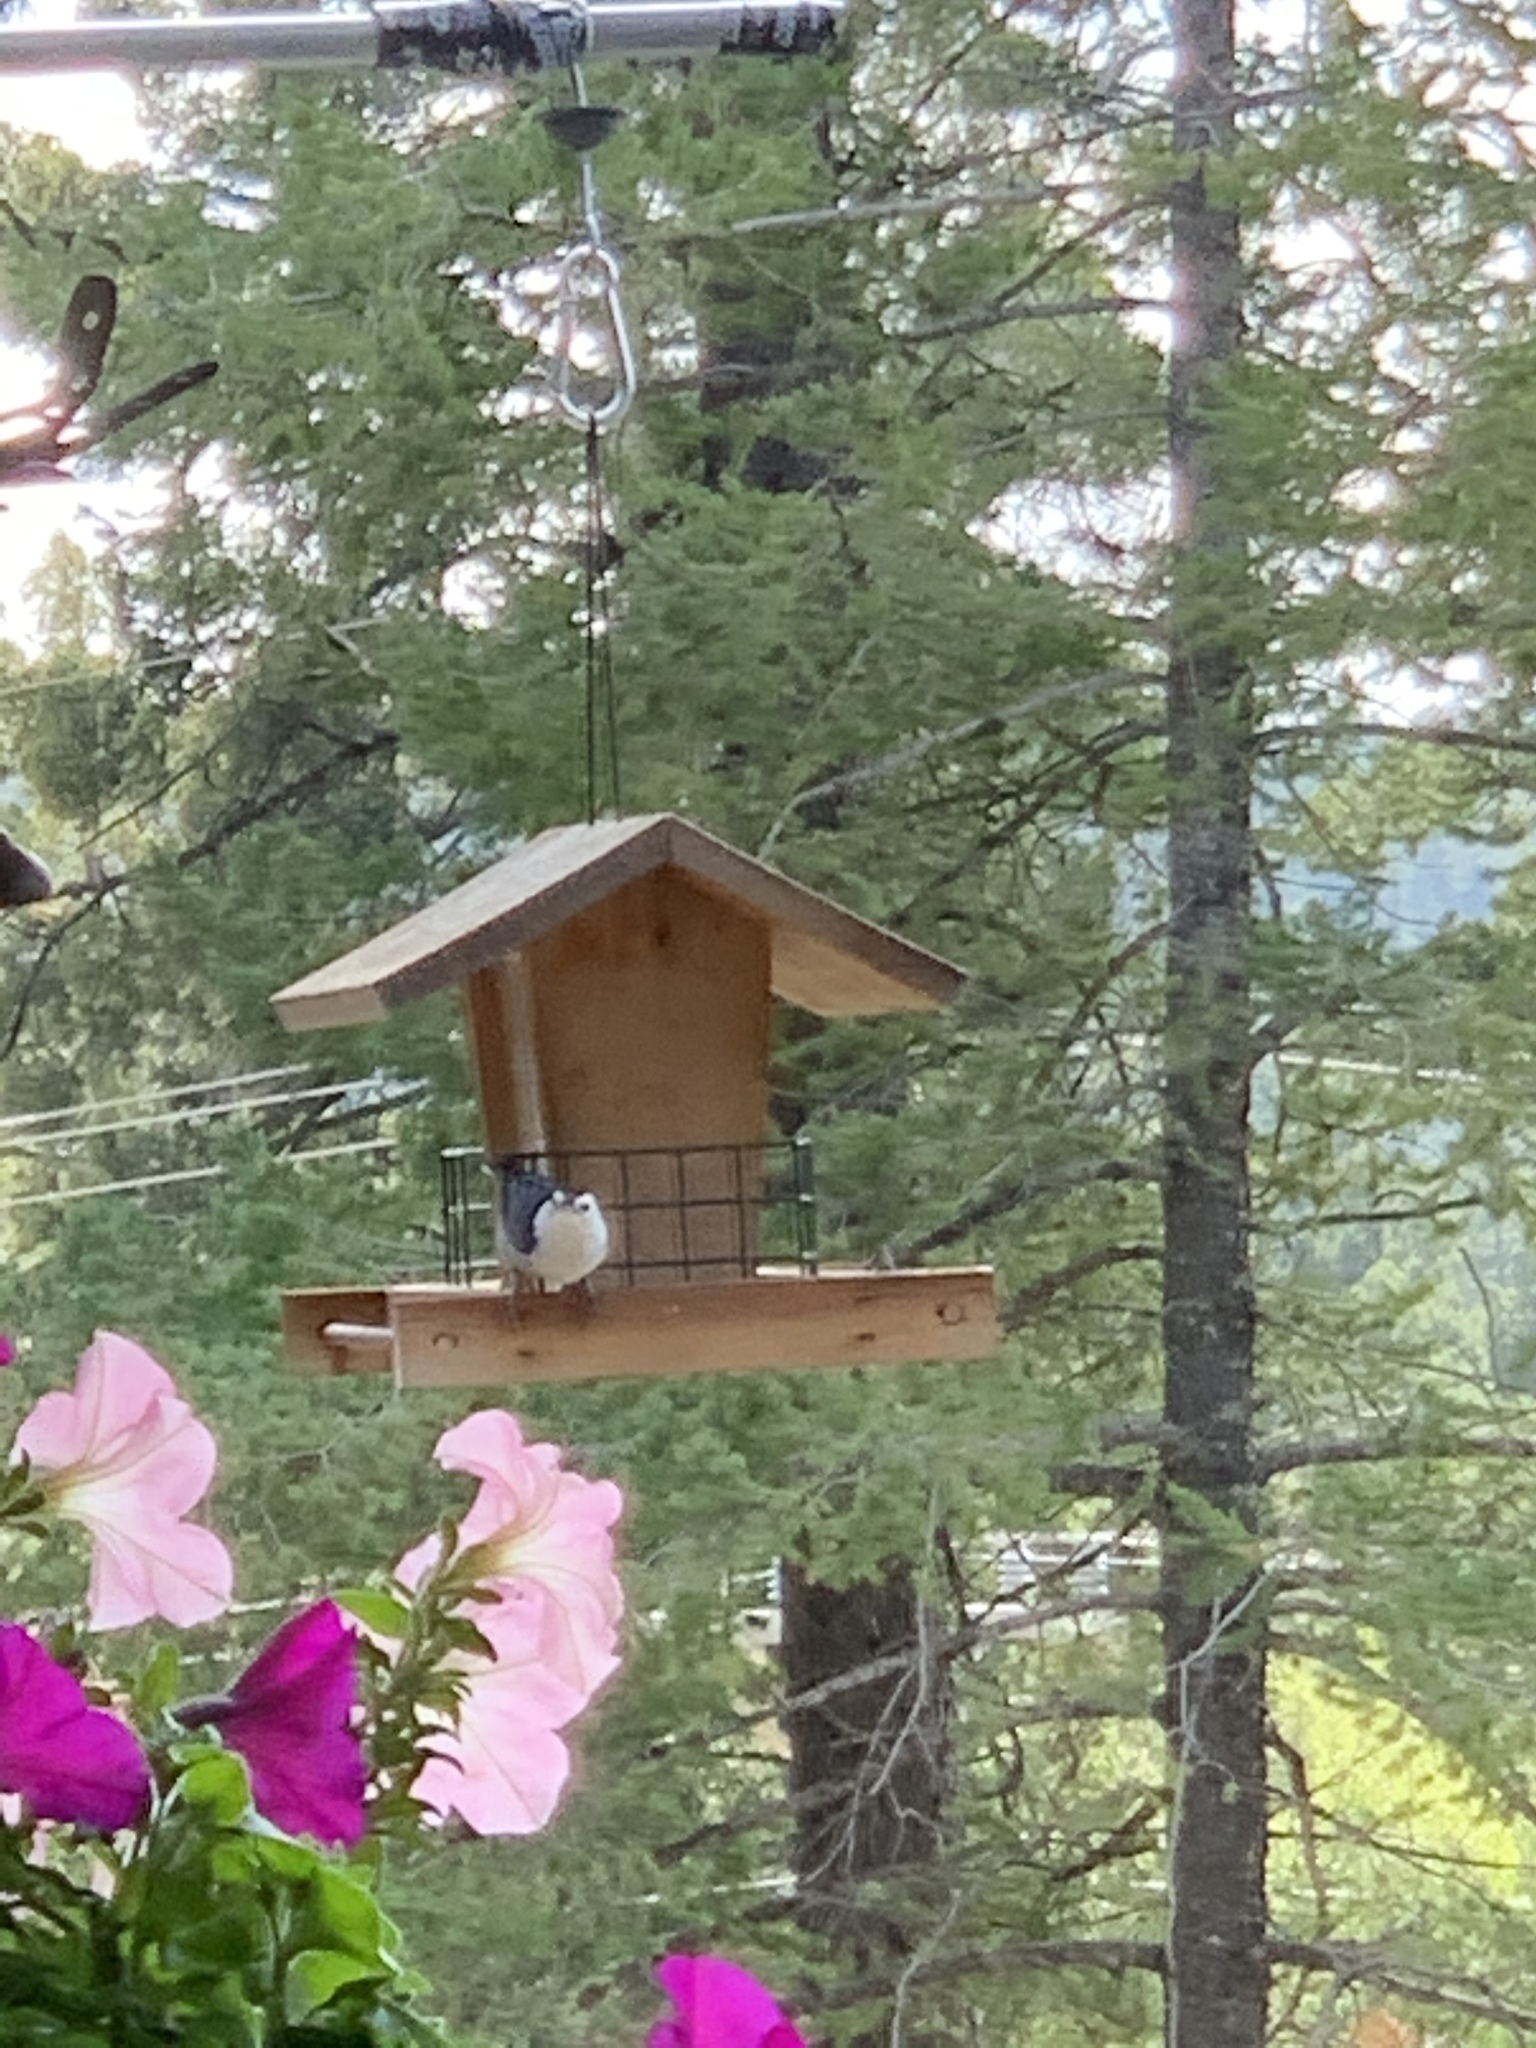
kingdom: Animalia
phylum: Chordata
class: Aves
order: Passeriformes
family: Sittidae
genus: Sitta
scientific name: Sitta carolinensis
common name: White-breasted nuthatch
